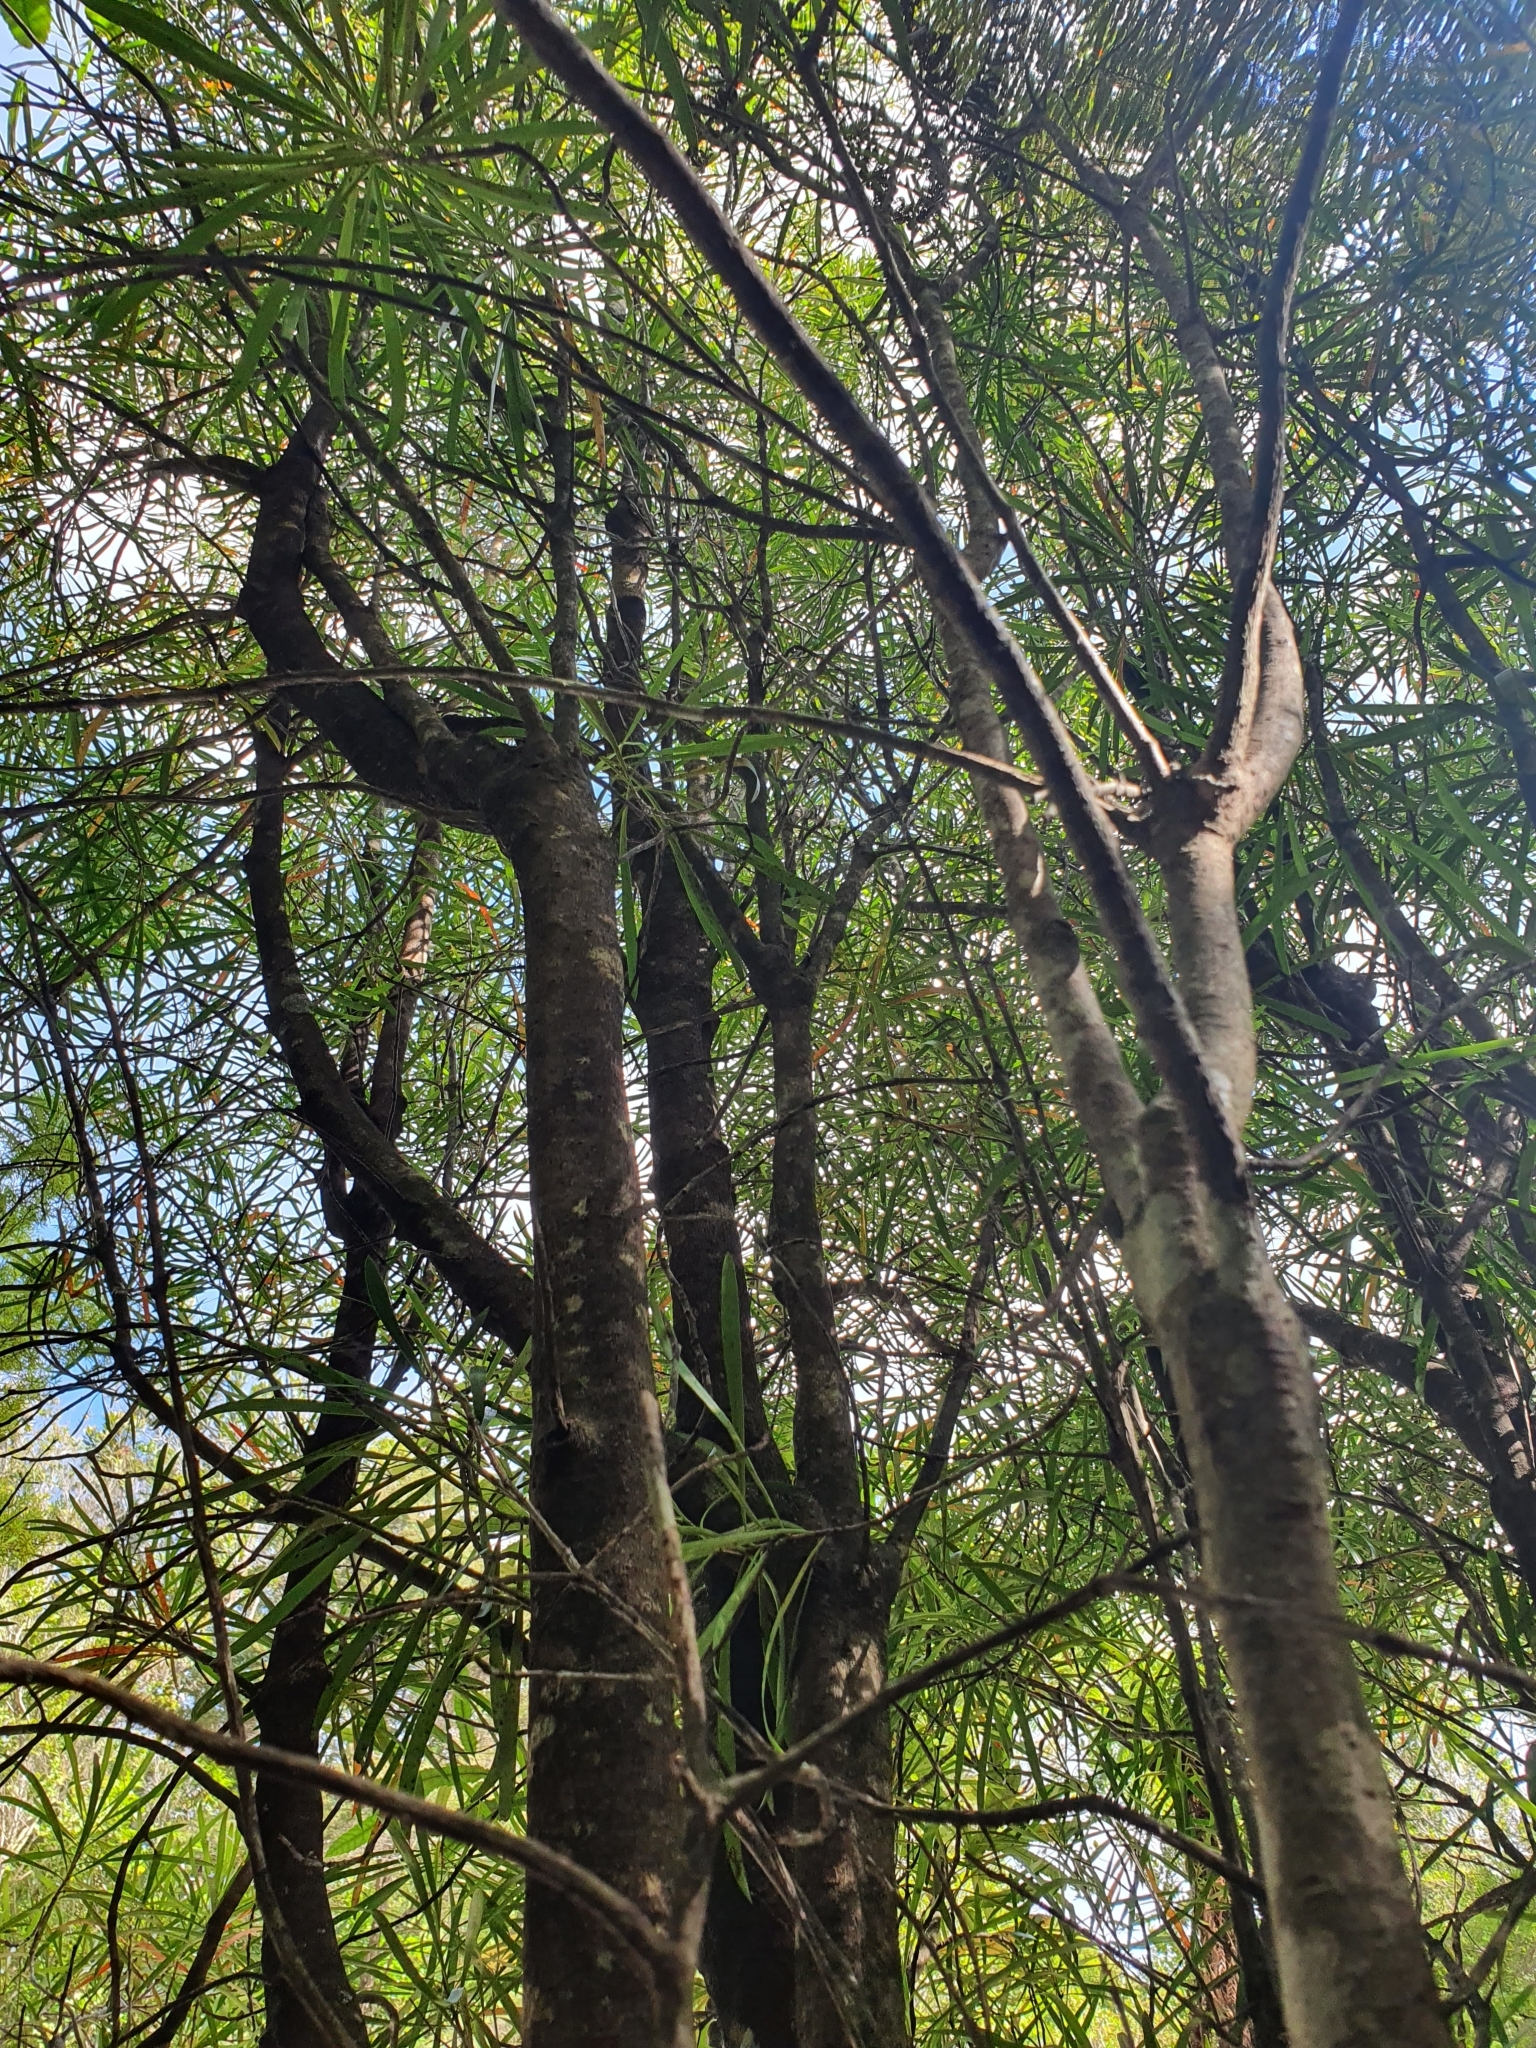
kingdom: Plantae
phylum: Tracheophyta
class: Magnoliopsida
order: Proteales
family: Proteaceae
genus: Toronia
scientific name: Toronia toru
